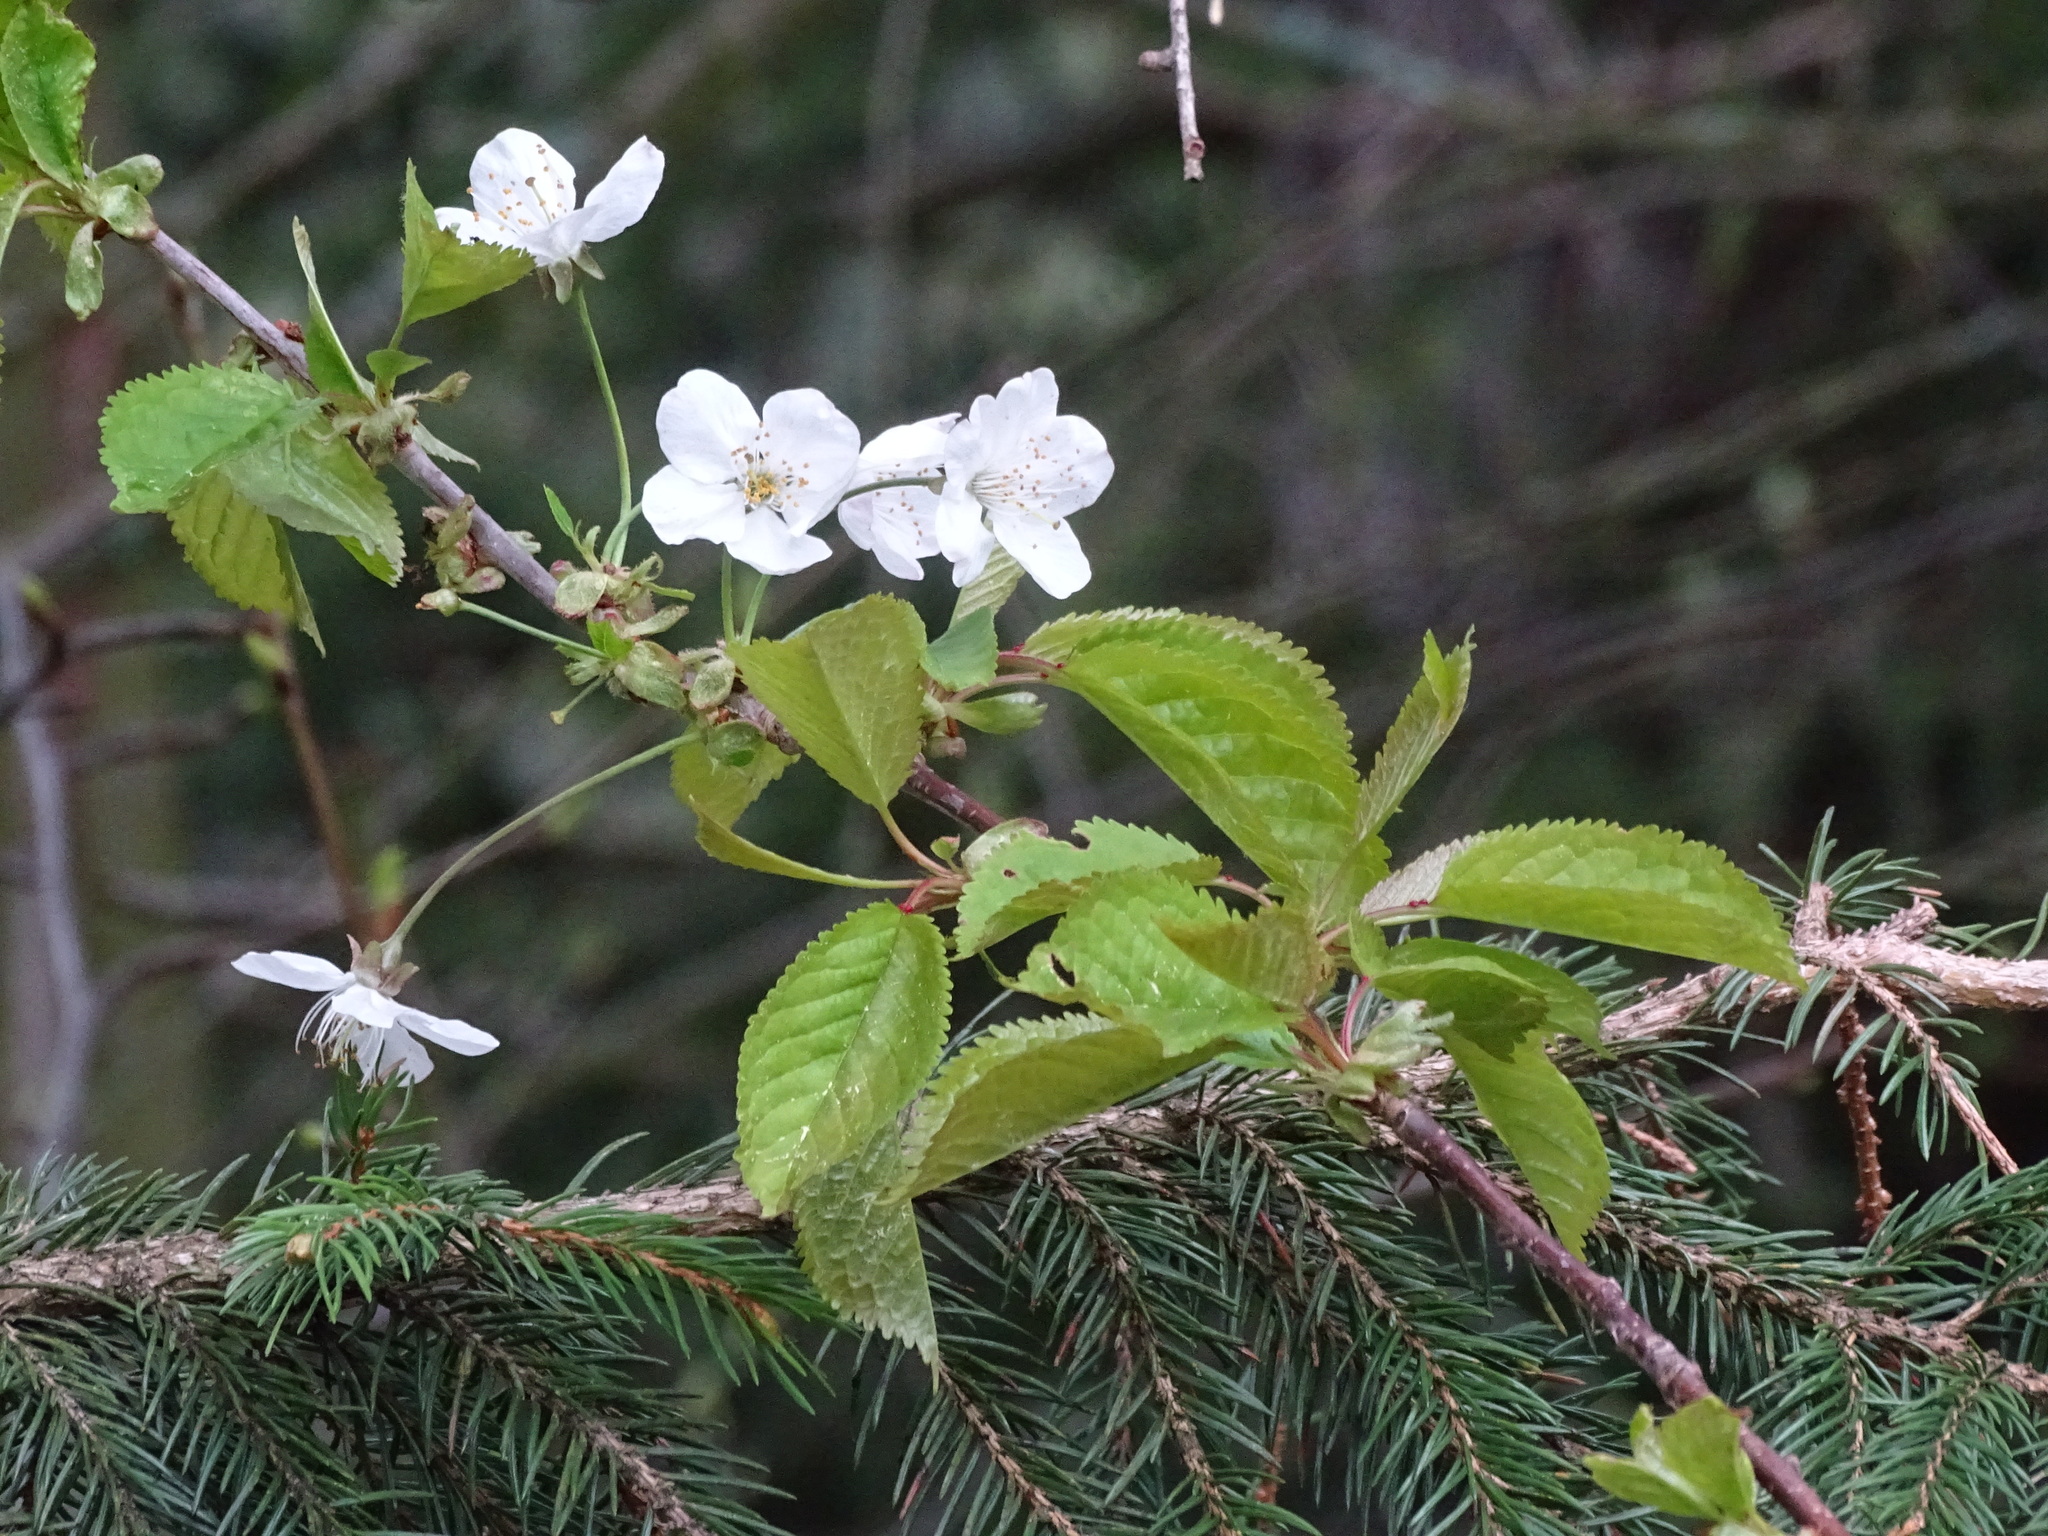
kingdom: Plantae
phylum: Tracheophyta
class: Magnoliopsida
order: Rosales
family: Rosaceae
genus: Prunus
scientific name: Prunus avium
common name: Sweet cherry
